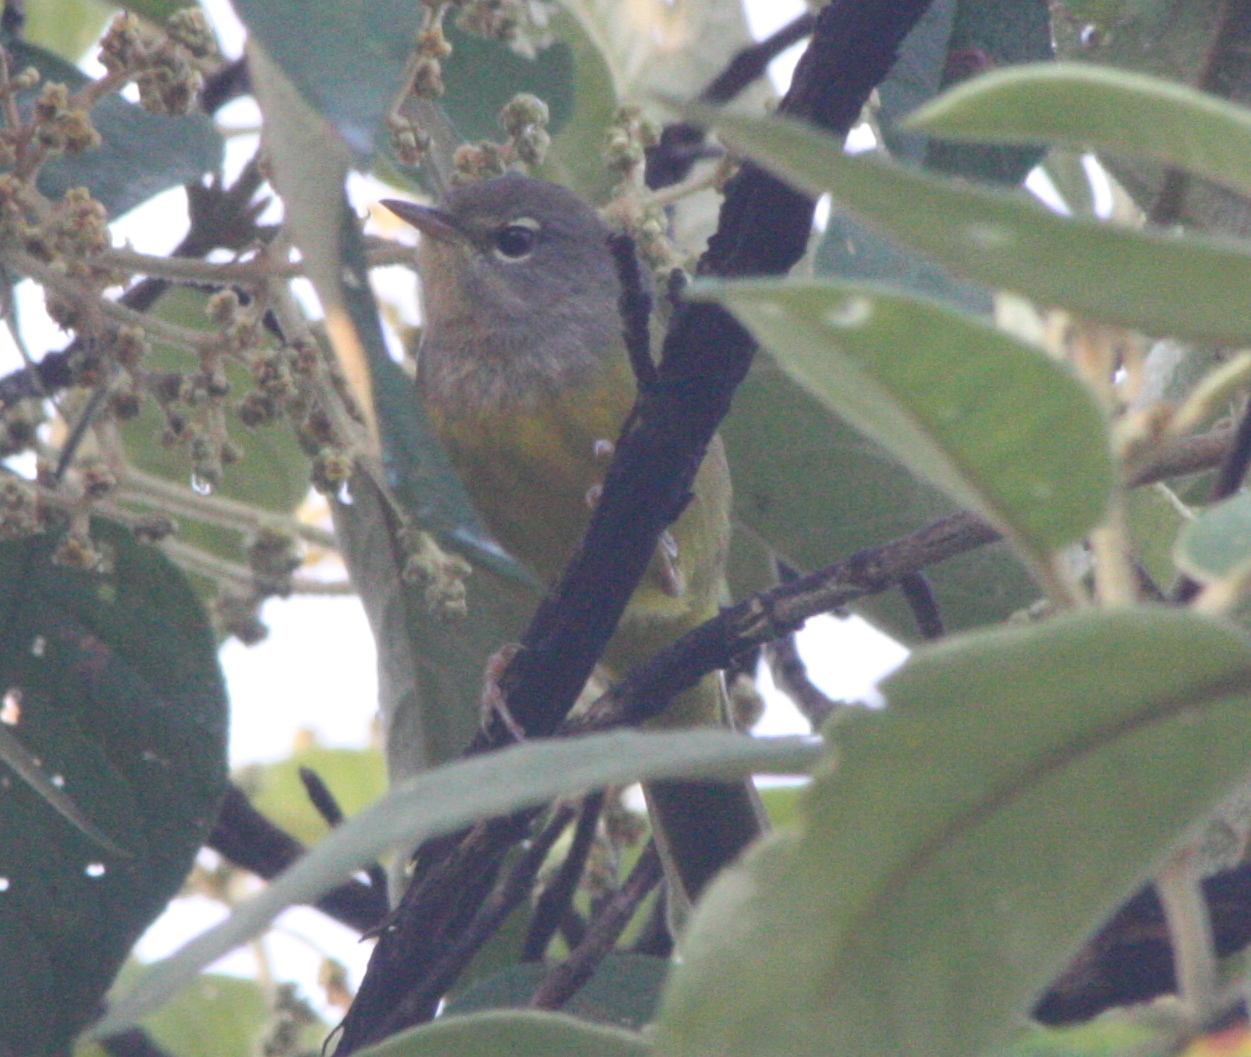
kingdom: Animalia
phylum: Chordata
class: Aves
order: Passeriformes
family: Parulidae
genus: Geothlypis
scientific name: Geothlypis tolmiei
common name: Macgillivray's warbler
